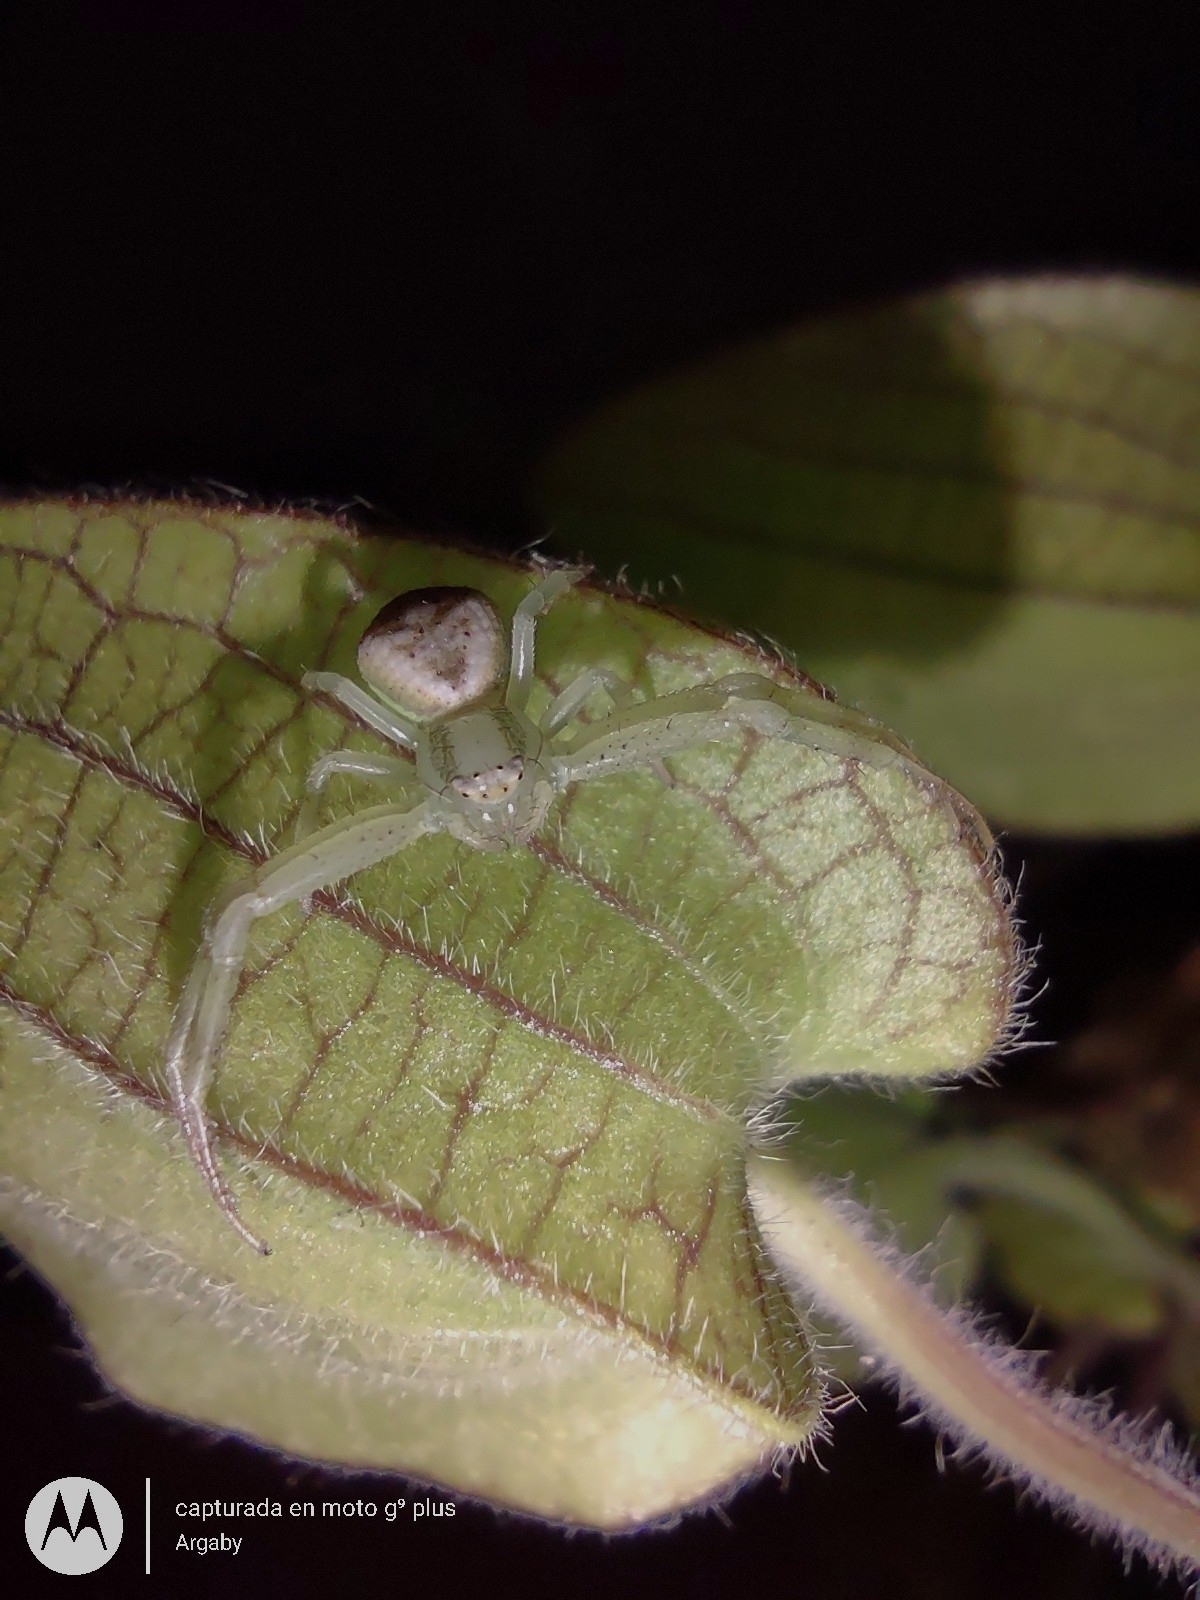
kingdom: Animalia
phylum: Arthropoda
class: Arachnida
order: Araneae
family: Thomisidae
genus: Misumenops
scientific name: Misumenops
